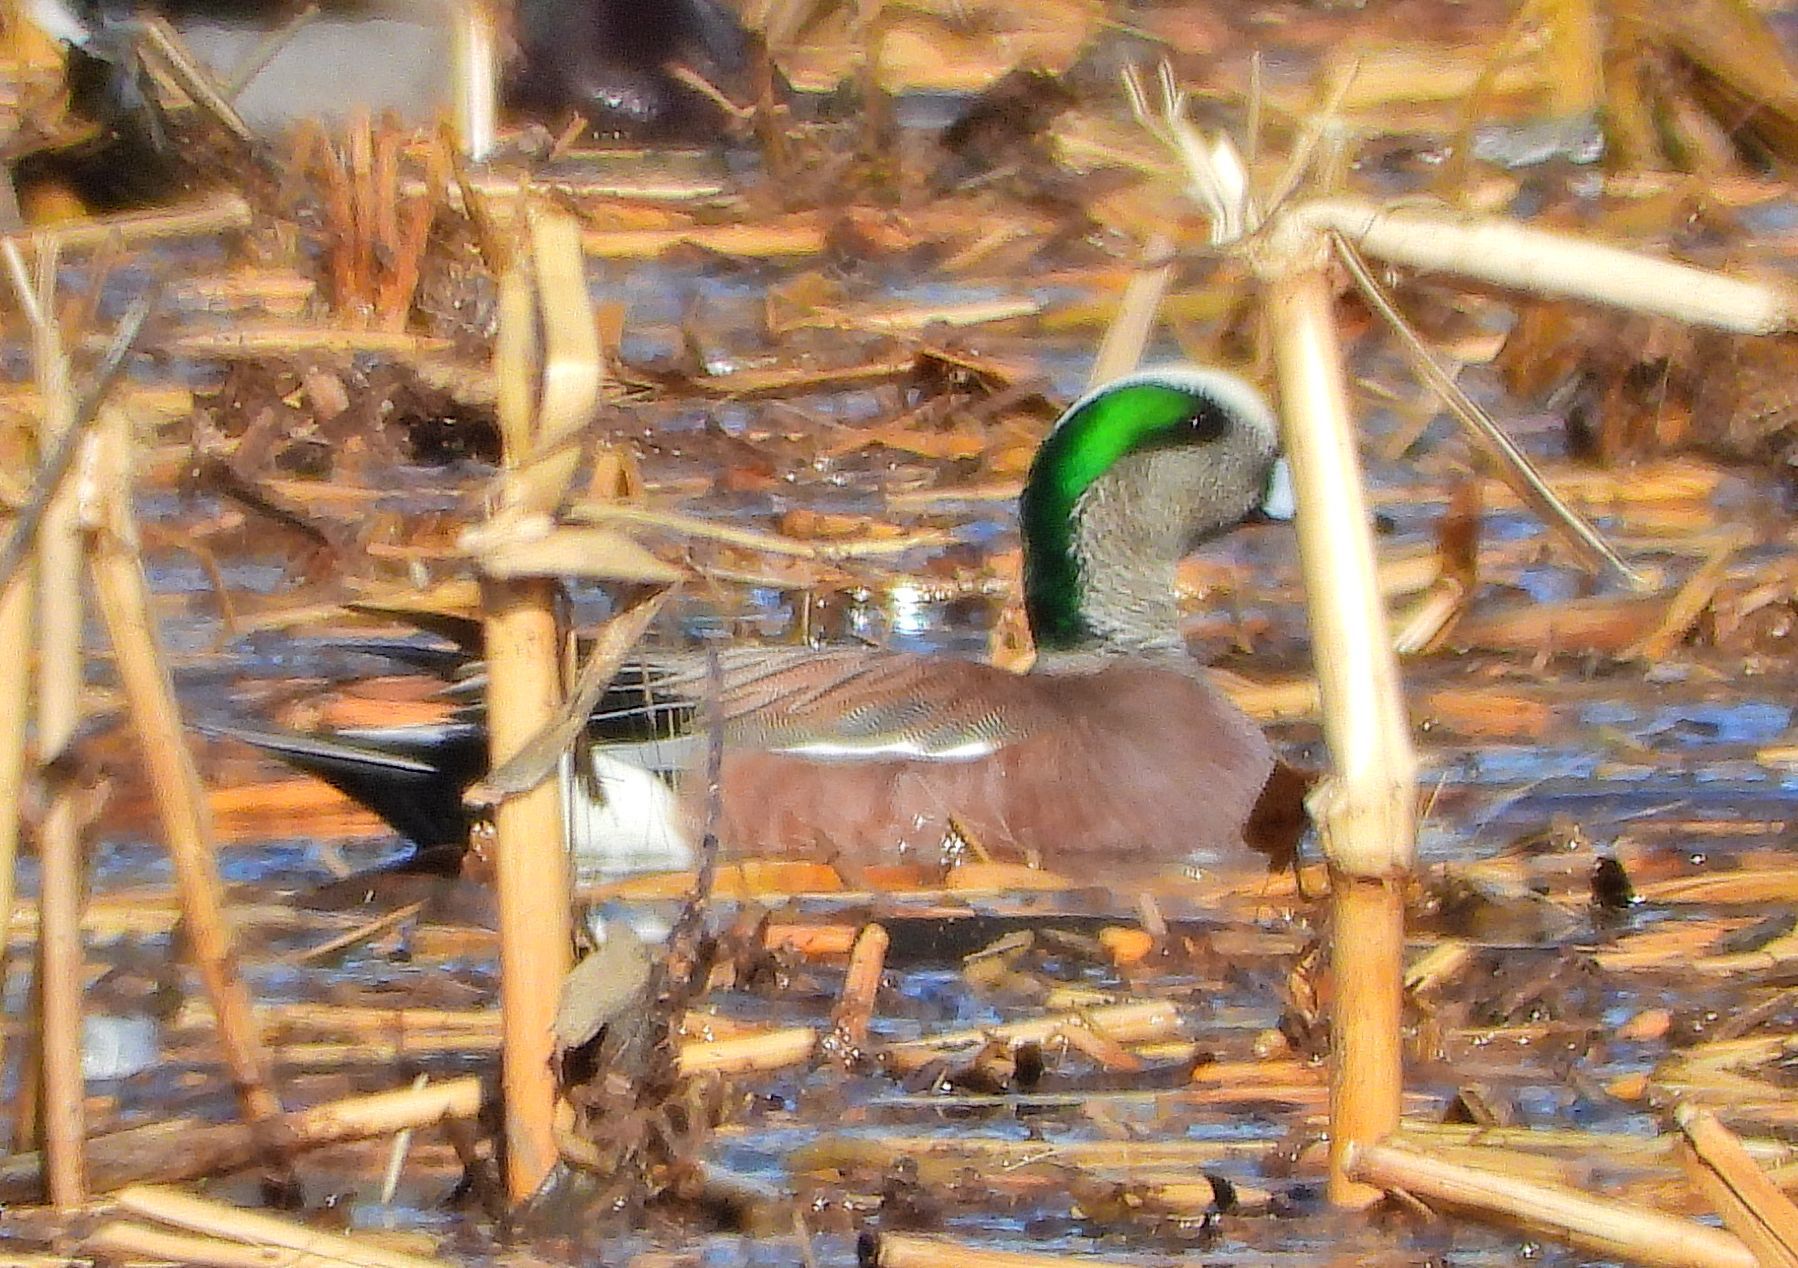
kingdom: Animalia
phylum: Chordata
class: Aves
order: Anseriformes
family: Anatidae
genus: Mareca
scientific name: Mareca americana
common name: American wigeon
